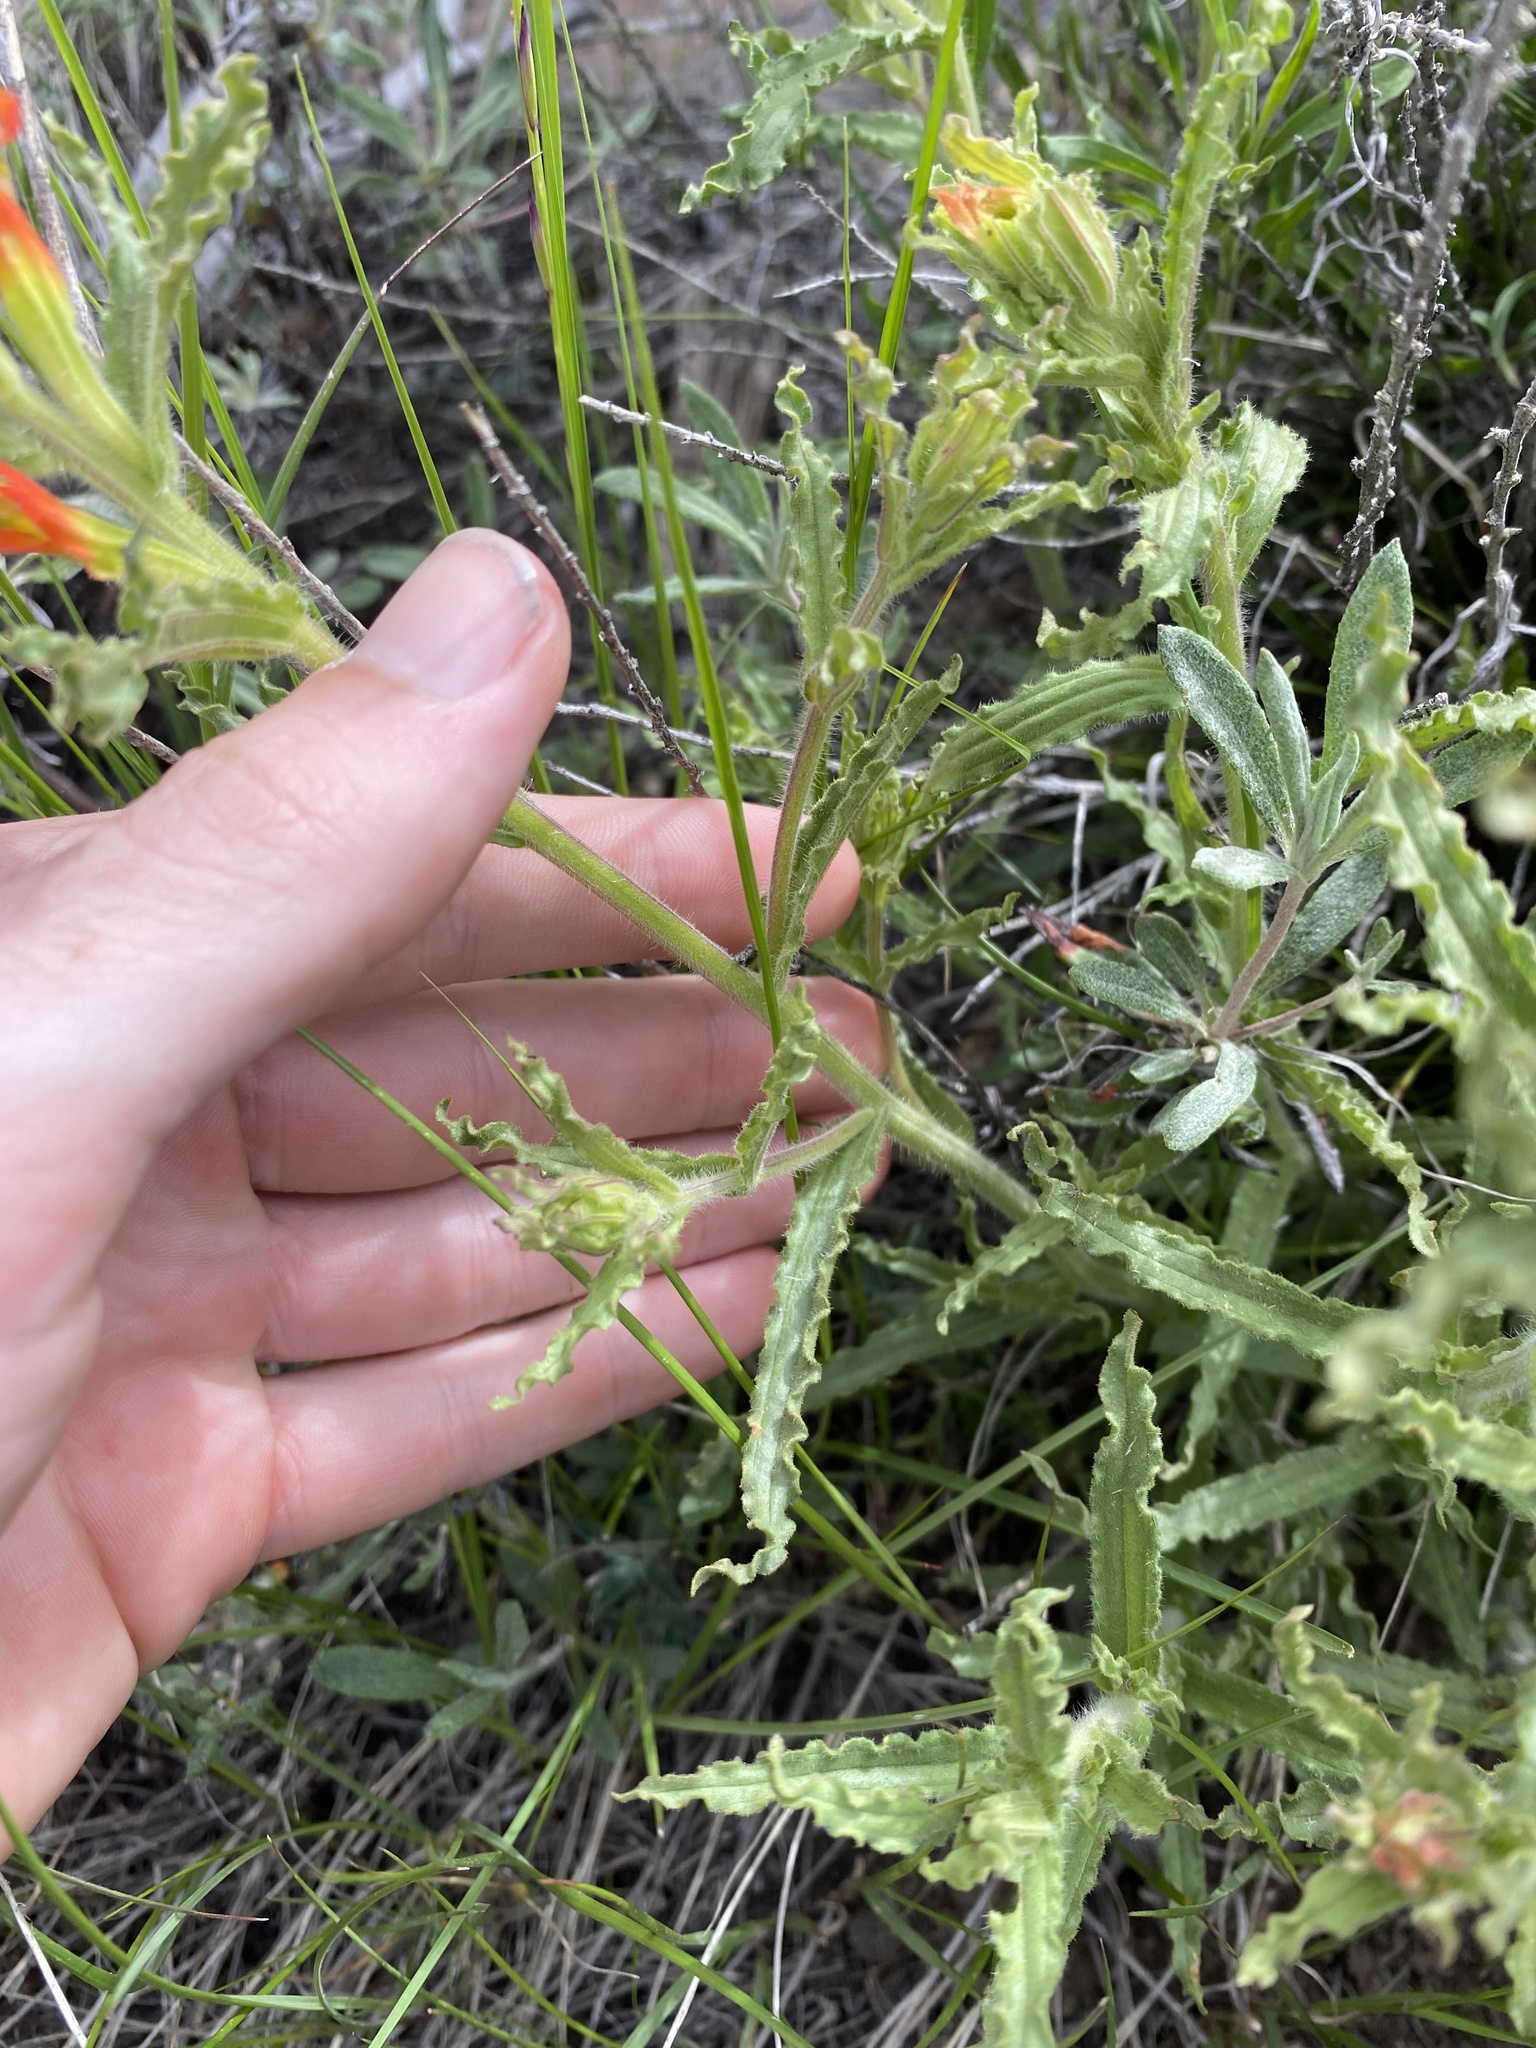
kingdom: Plantae
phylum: Tracheophyta
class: Magnoliopsida
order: Lamiales
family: Orobanchaceae
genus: Castilleja
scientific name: Castilleja applegatei
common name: Wavy-leaf paintbrush
